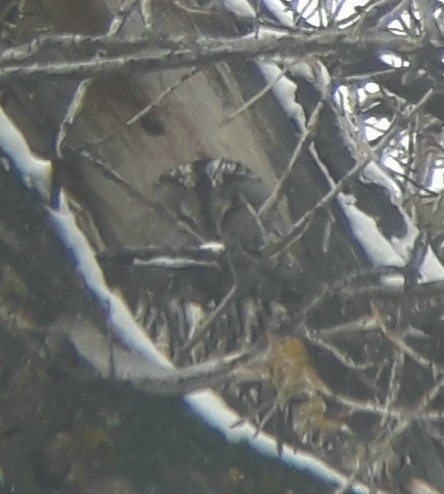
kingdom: Animalia
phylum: Chordata
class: Aves
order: Strigiformes
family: Strigidae
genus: Strix
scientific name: Strix aluco
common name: Tawny owl
